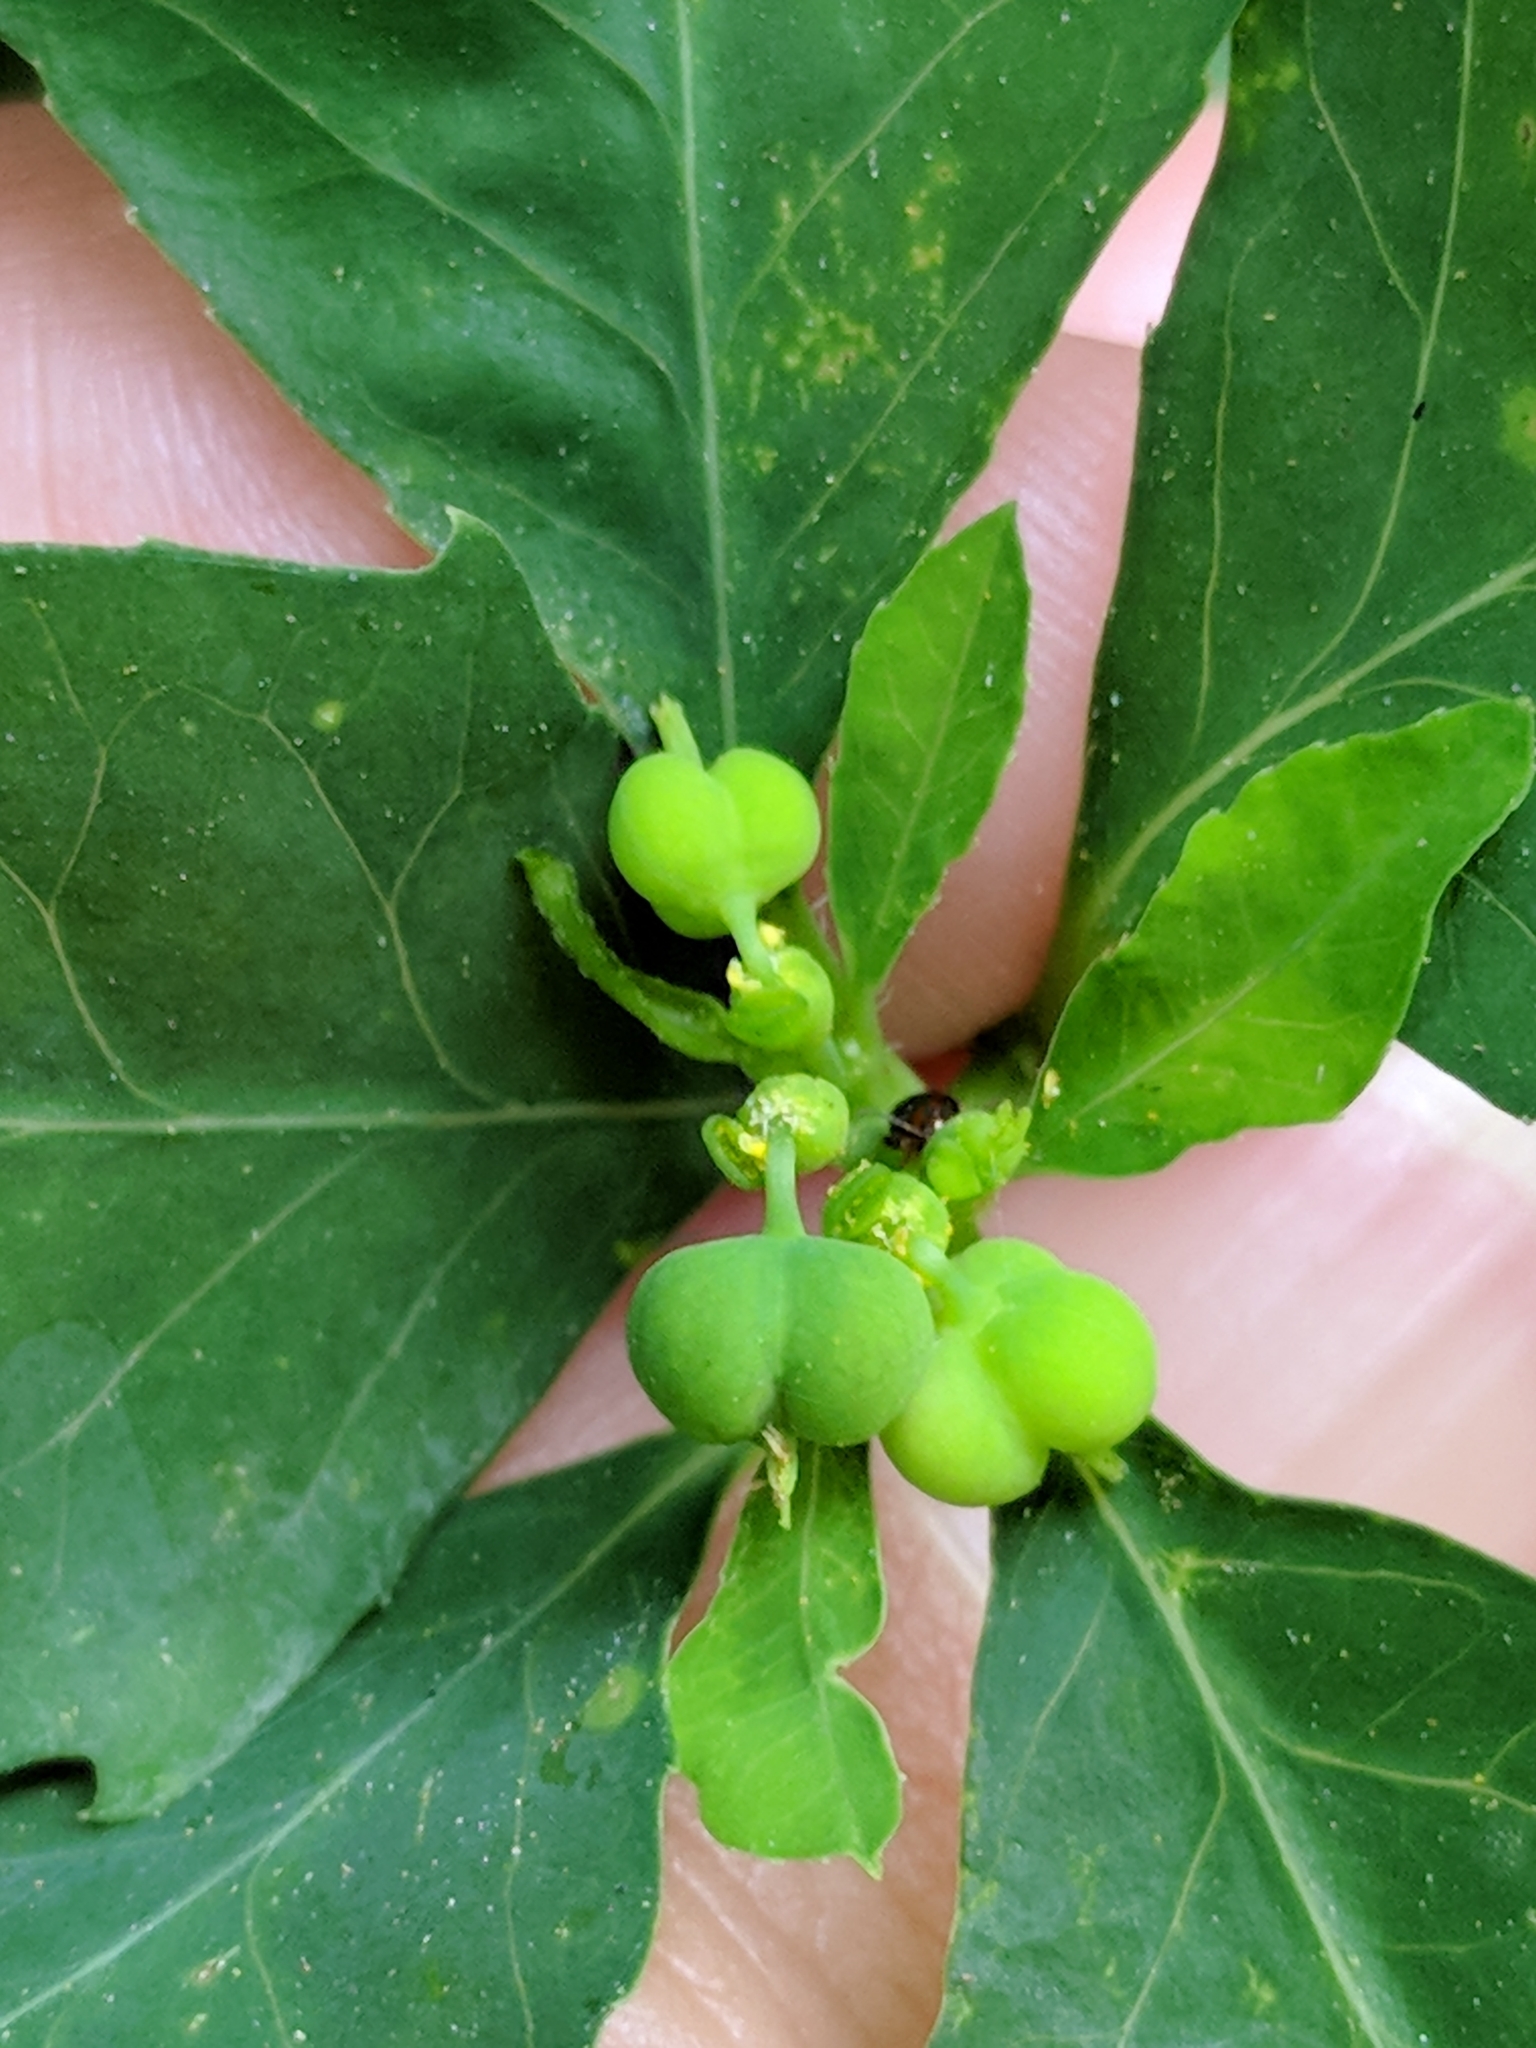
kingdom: Plantae
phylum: Tracheophyta
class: Magnoliopsida
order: Malpighiales
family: Euphorbiaceae
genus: Euphorbia
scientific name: Euphorbia heterophylla
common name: Mexican fireplant
